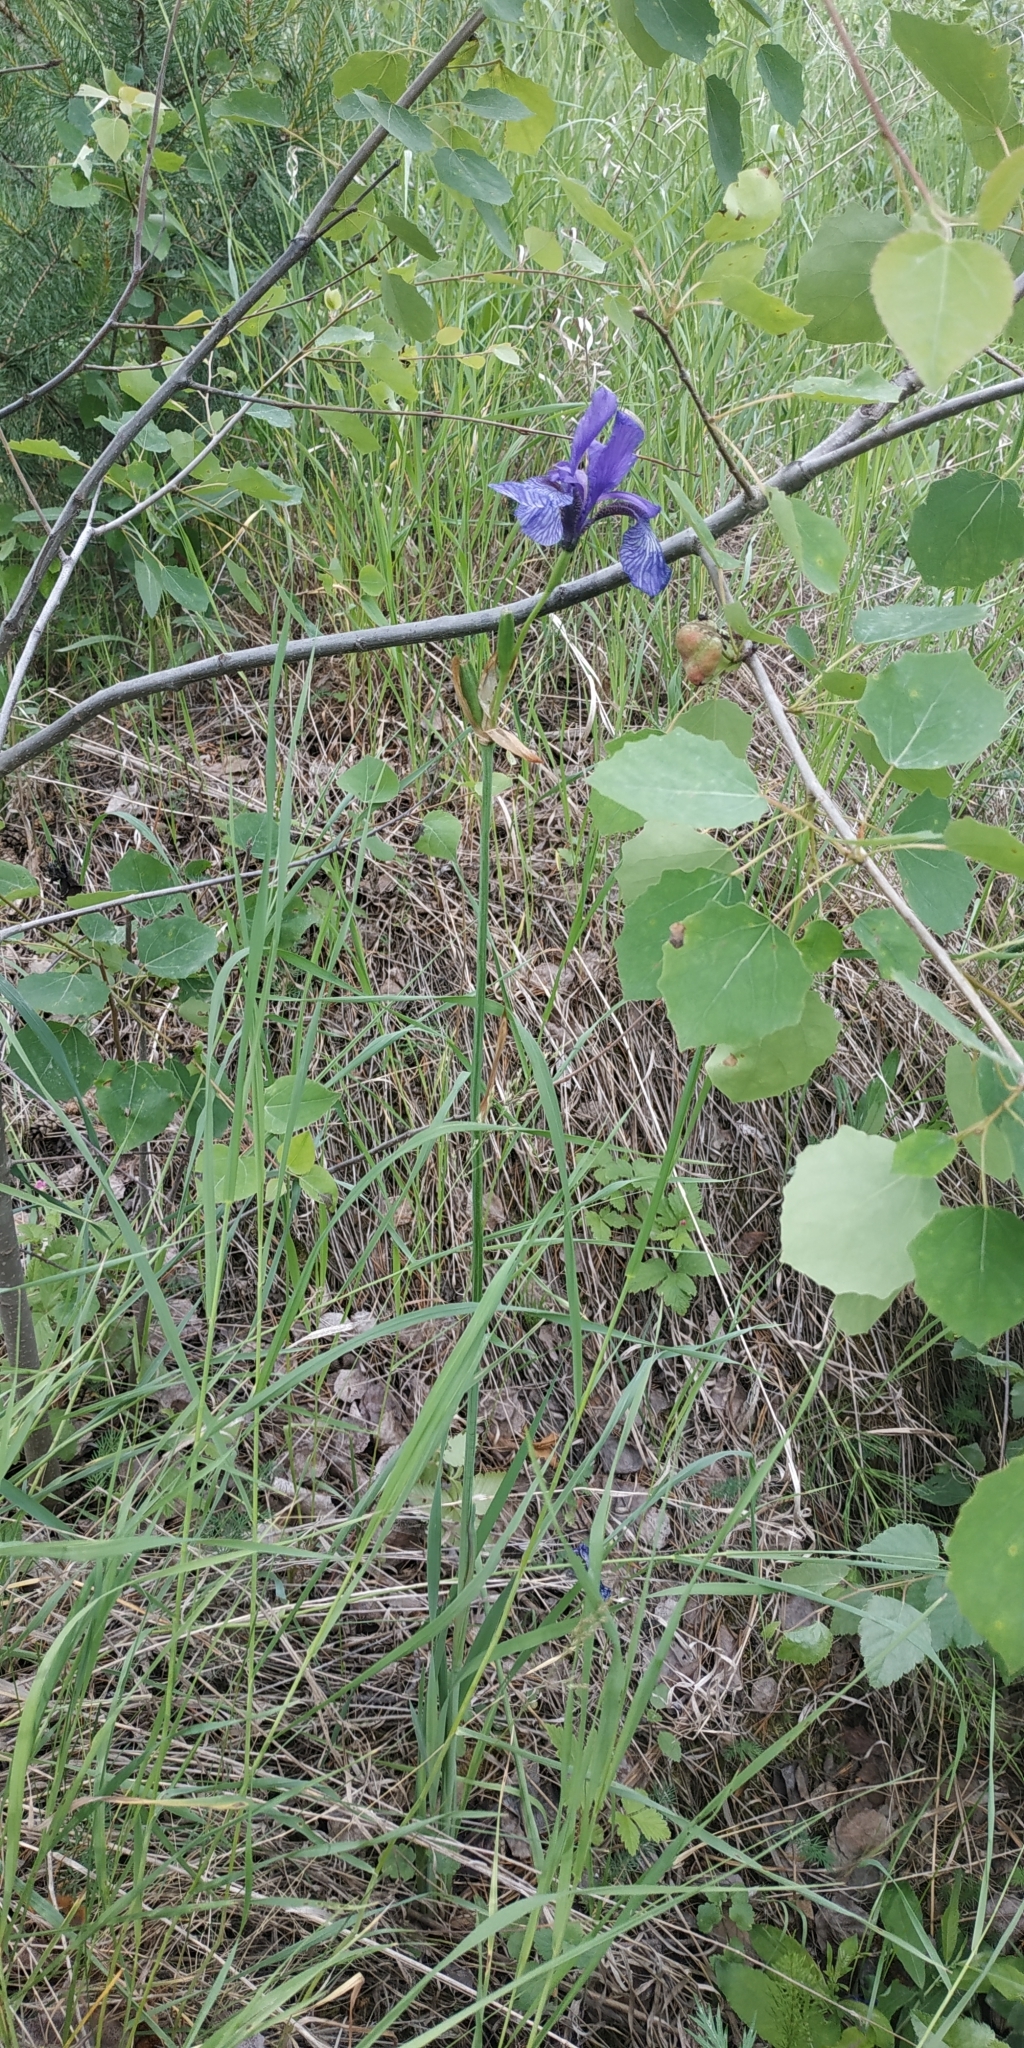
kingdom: Plantae
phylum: Tracheophyta
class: Liliopsida
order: Asparagales
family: Iridaceae
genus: Iris
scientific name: Iris sibirica
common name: Siberian iris
